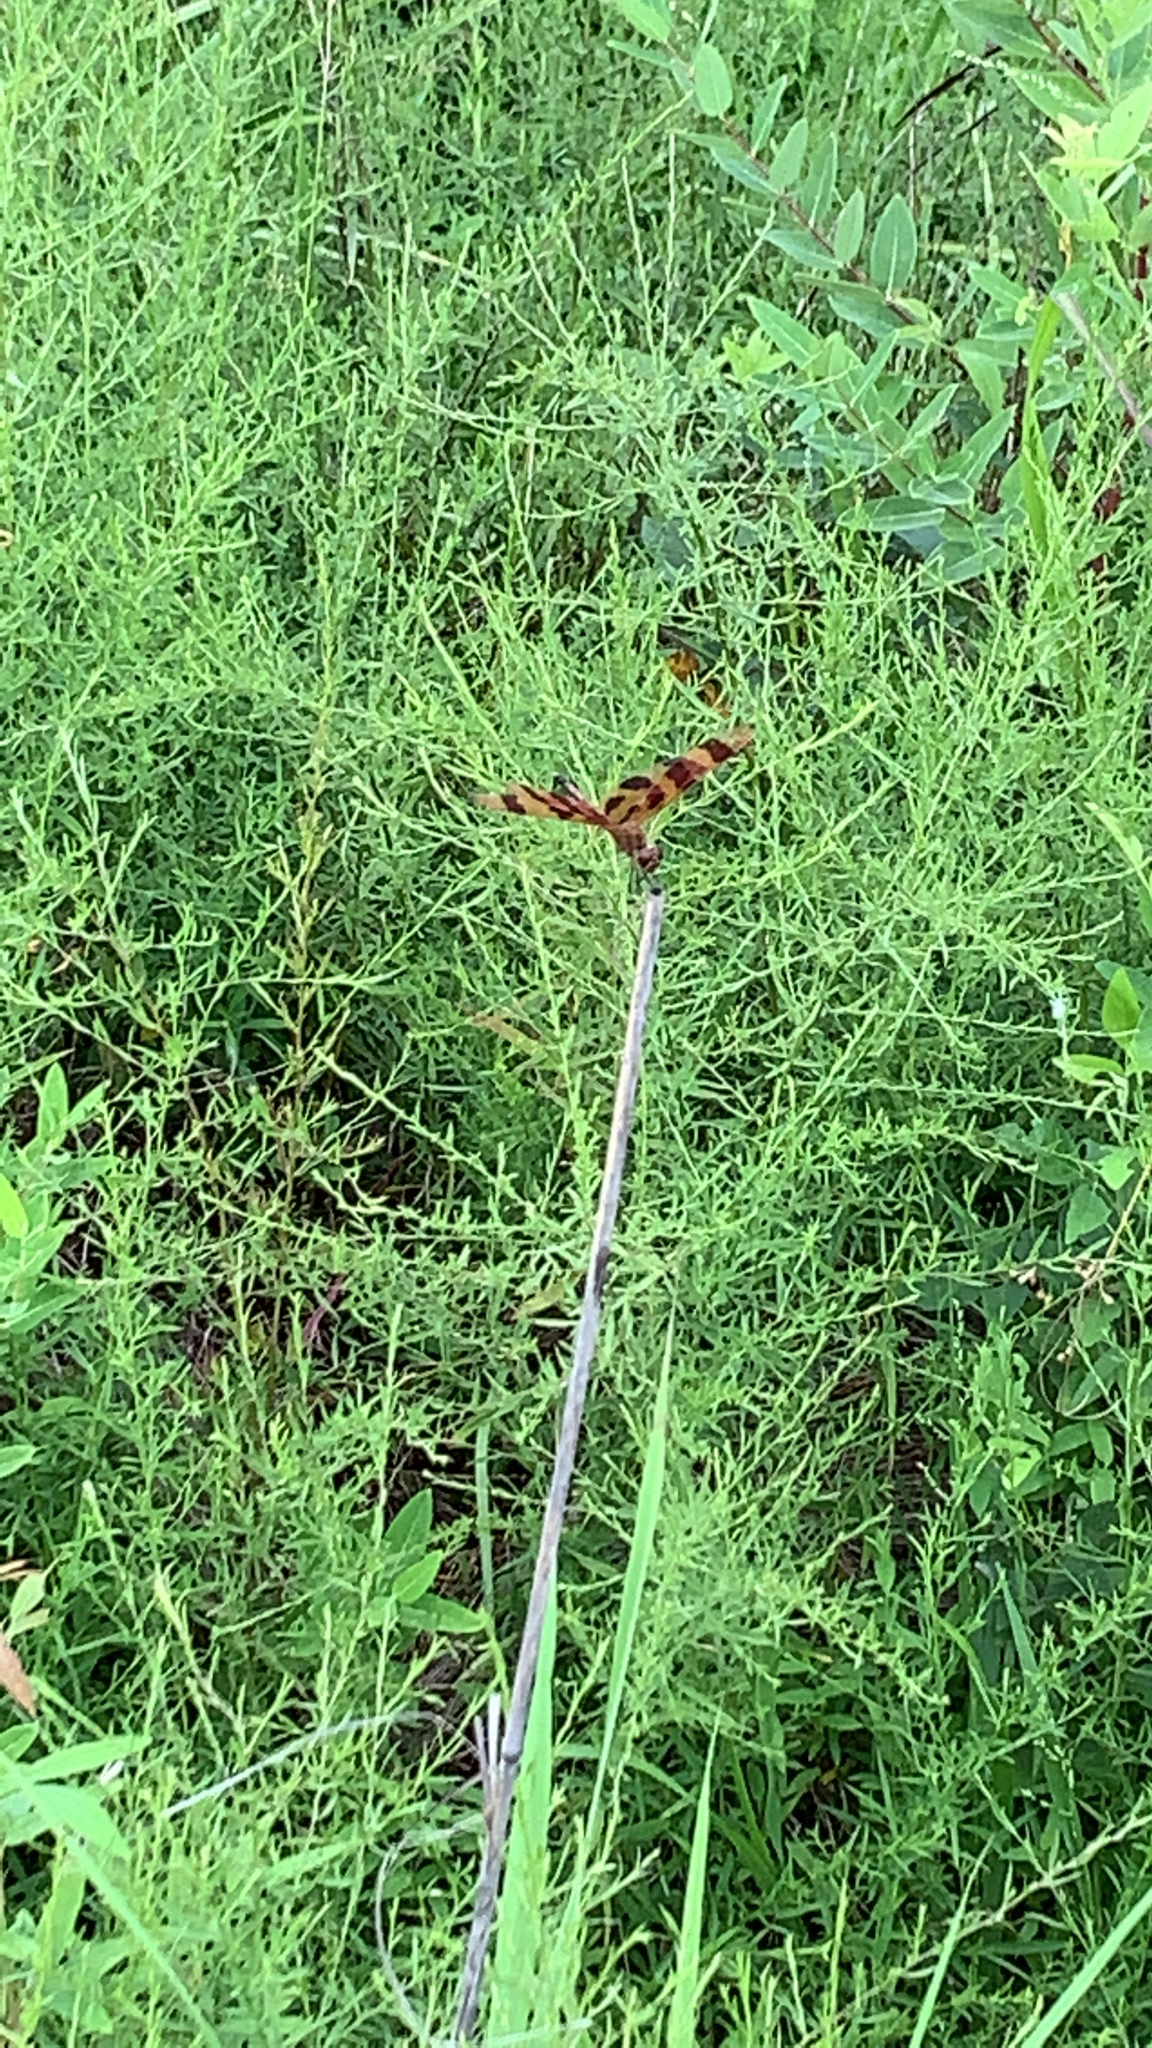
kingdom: Animalia
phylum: Arthropoda
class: Insecta
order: Odonata
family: Libellulidae
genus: Celithemis
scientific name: Celithemis eponina
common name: Halloween pennant
